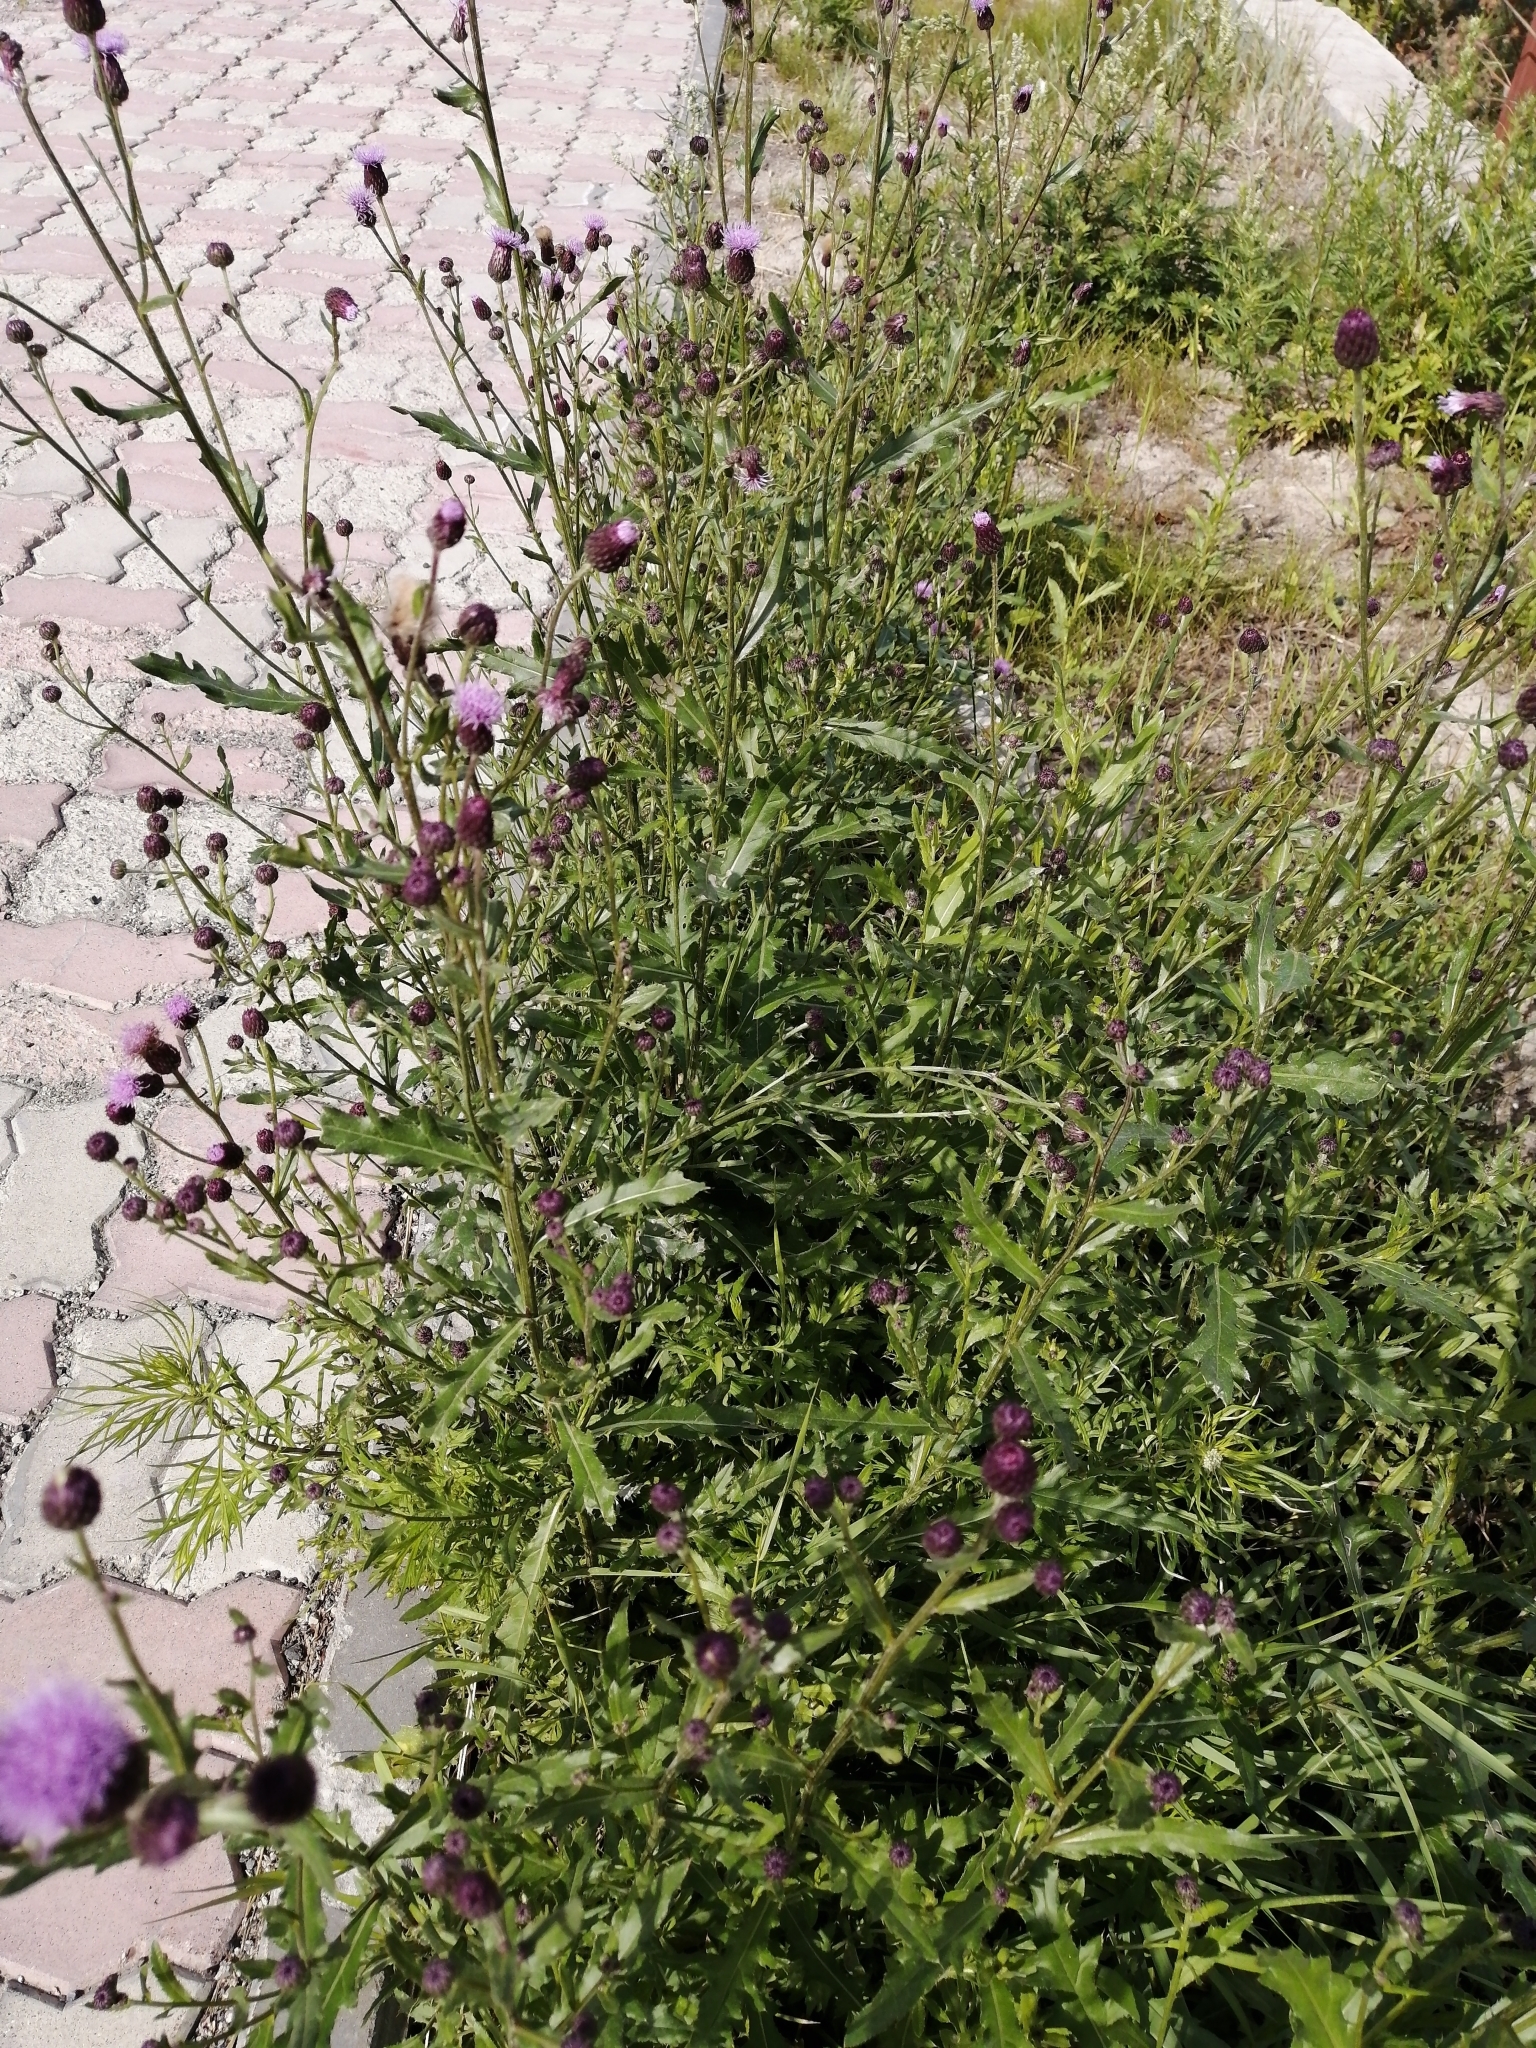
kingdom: Plantae
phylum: Tracheophyta
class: Magnoliopsida
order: Asterales
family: Asteraceae
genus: Cirsium
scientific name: Cirsium arvense
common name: Creeping thistle
